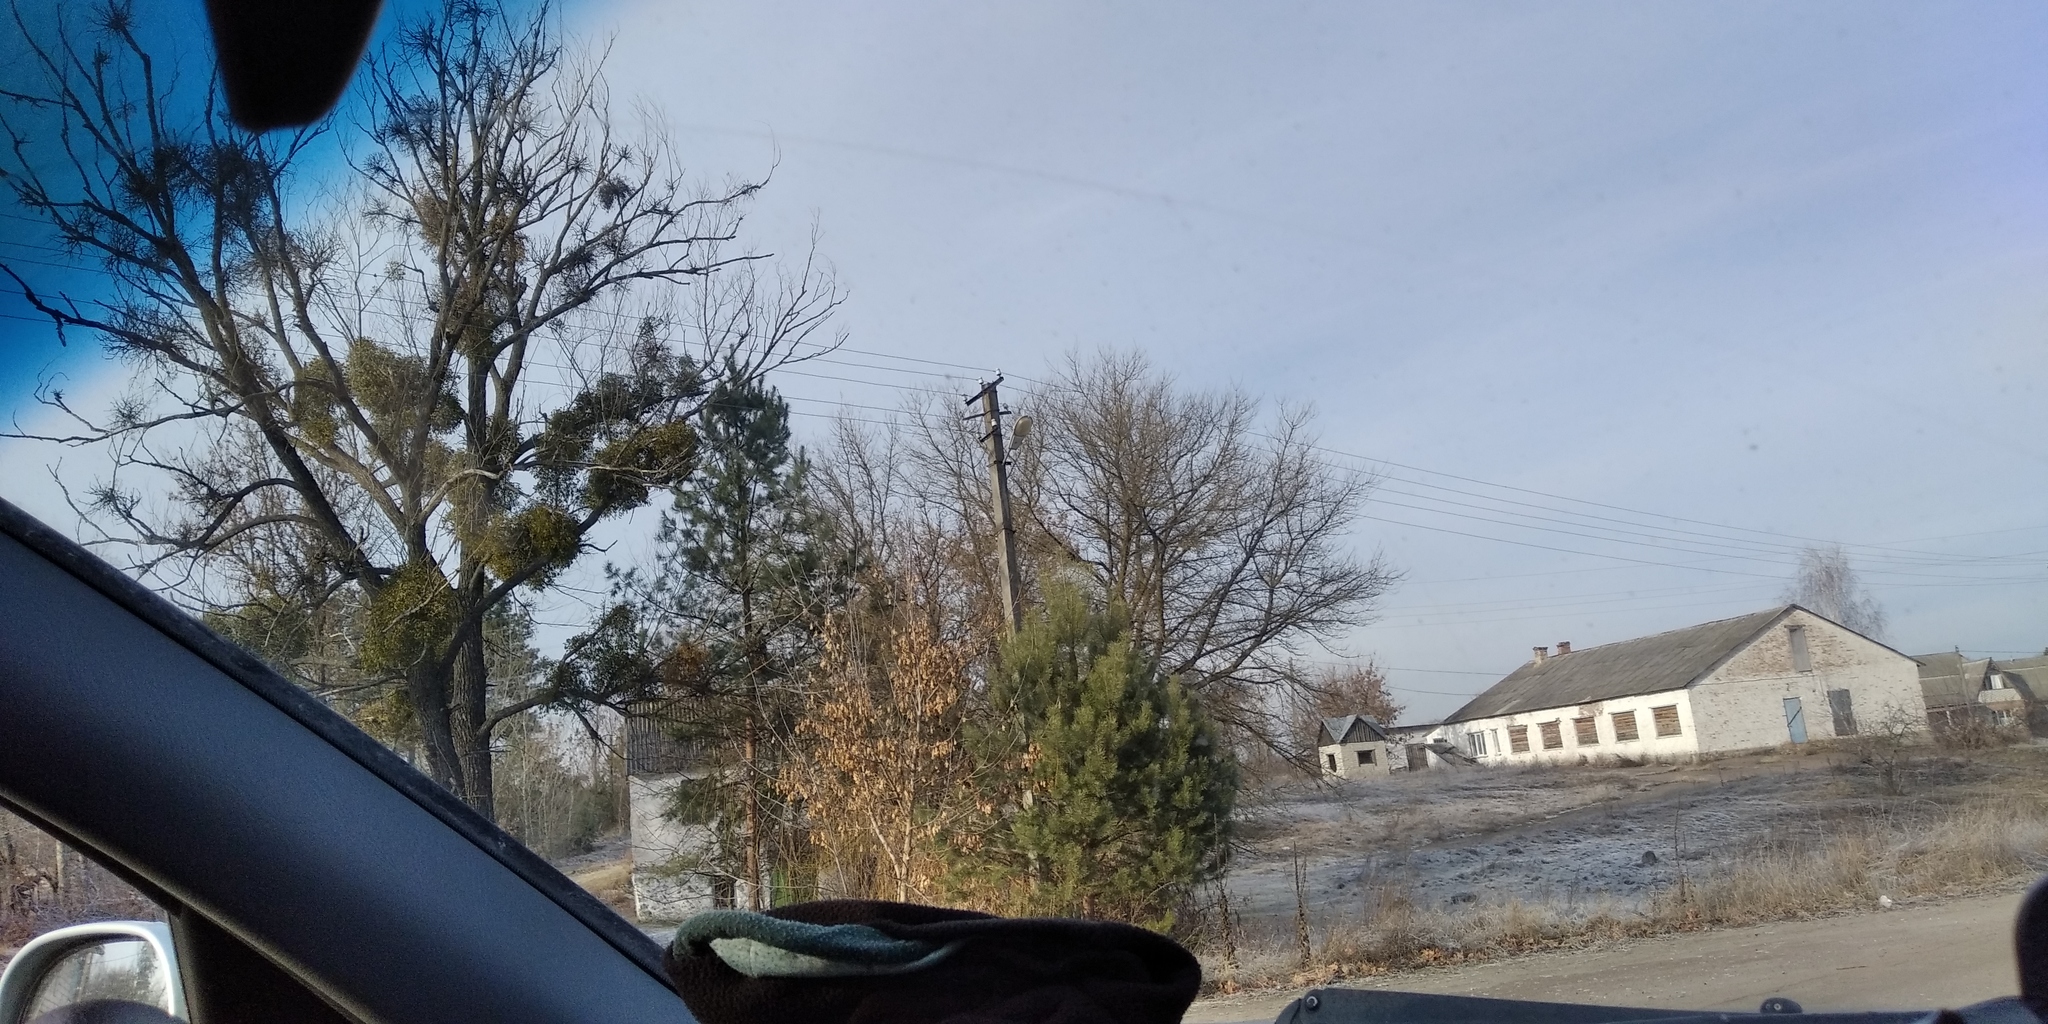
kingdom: Plantae
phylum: Tracheophyta
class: Magnoliopsida
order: Santalales
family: Viscaceae
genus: Viscum
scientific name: Viscum album
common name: Mistletoe
